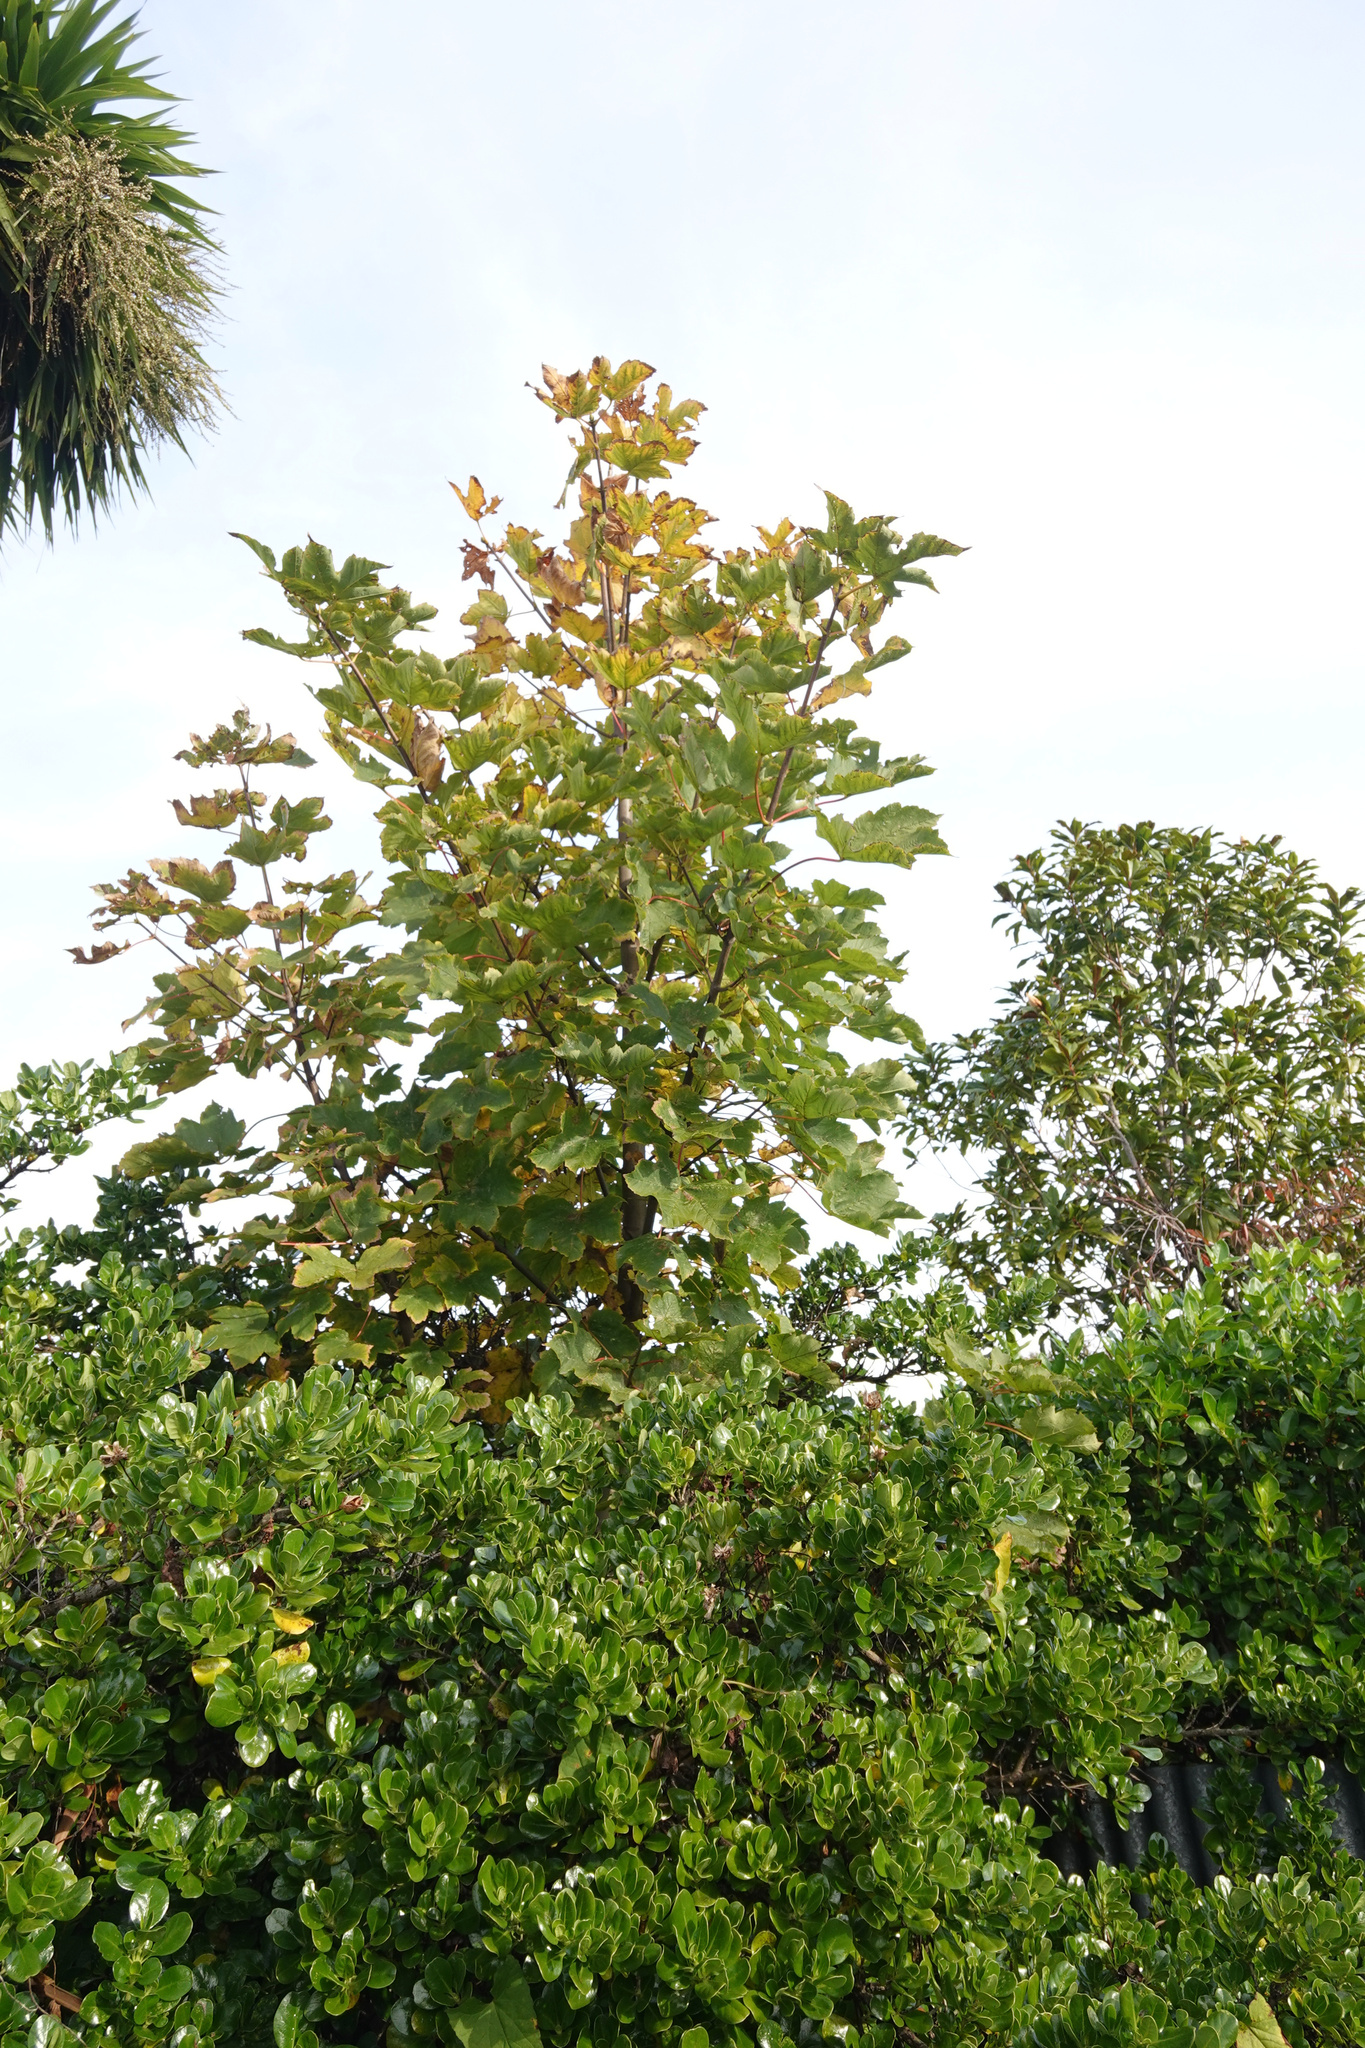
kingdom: Plantae
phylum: Tracheophyta
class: Magnoliopsida
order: Sapindales
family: Sapindaceae
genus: Acer
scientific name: Acer pseudoplatanus
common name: Sycamore
